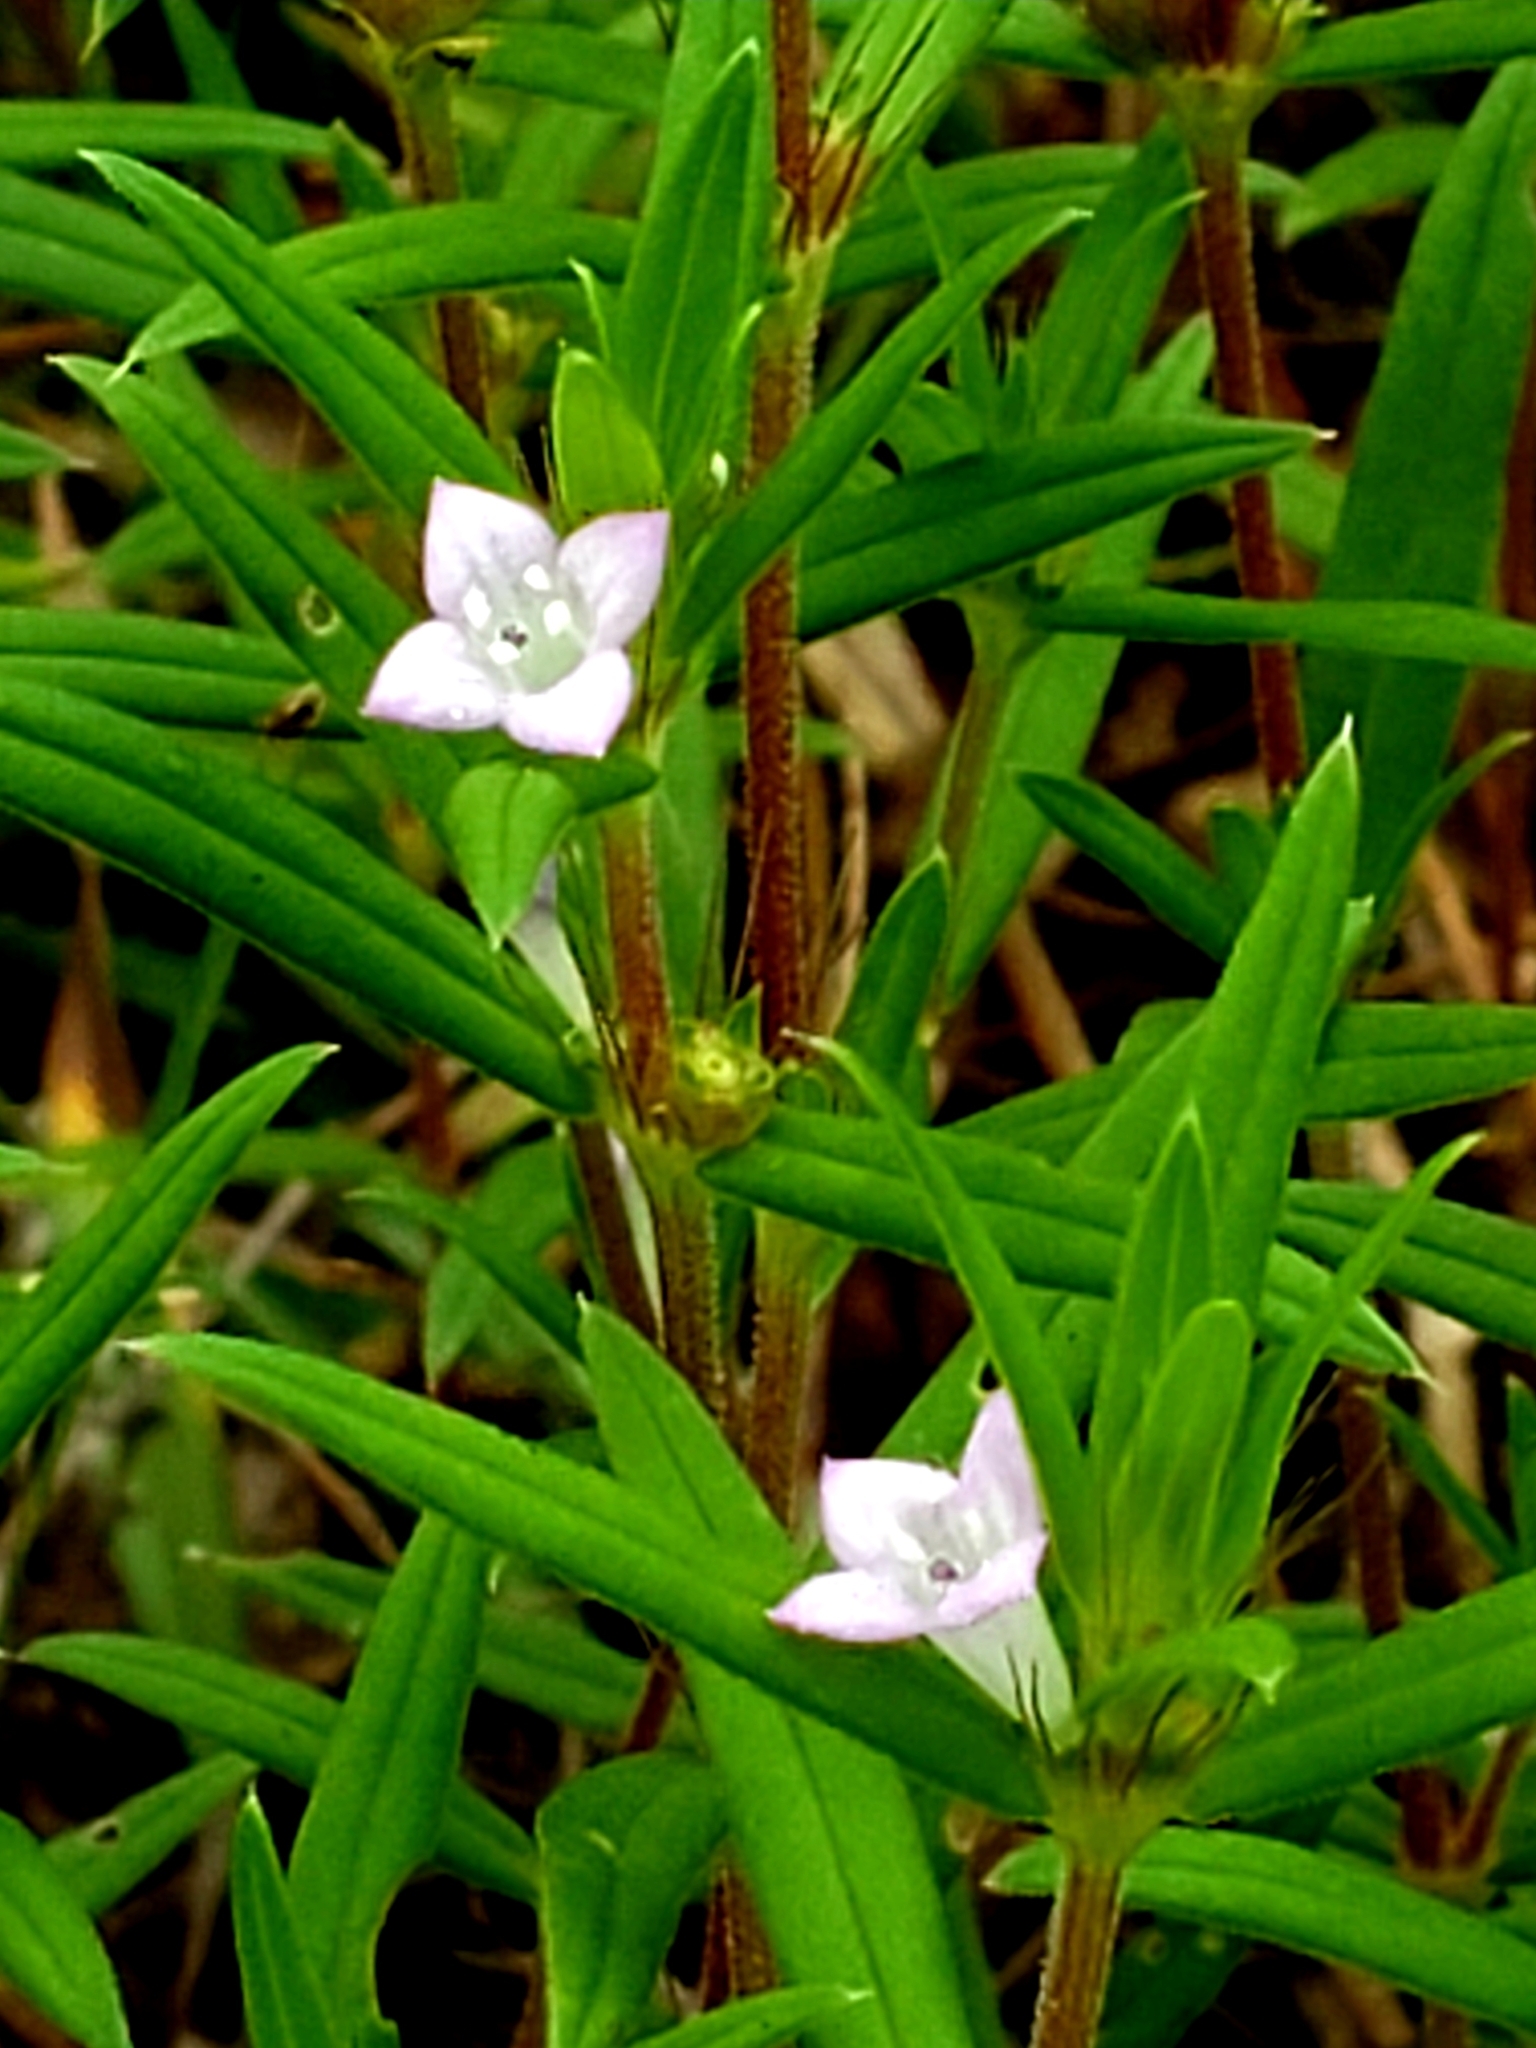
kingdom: Plantae
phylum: Tracheophyta
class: Magnoliopsida
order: Gentianales
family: Rubiaceae
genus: Hexasepalum
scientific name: Hexasepalum teres
